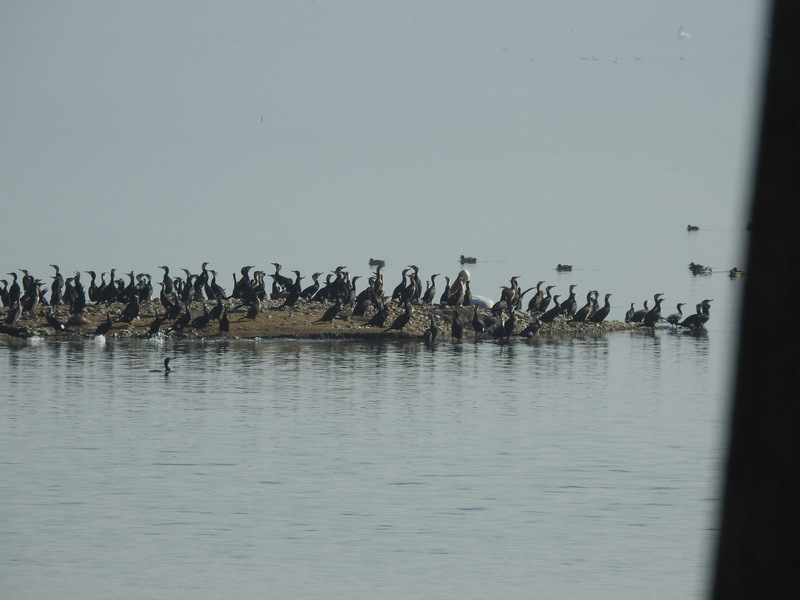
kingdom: Animalia
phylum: Chordata
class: Aves
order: Suliformes
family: Phalacrocoracidae
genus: Phalacrocorax
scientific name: Phalacrocorax carbo
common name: Great cormorant
